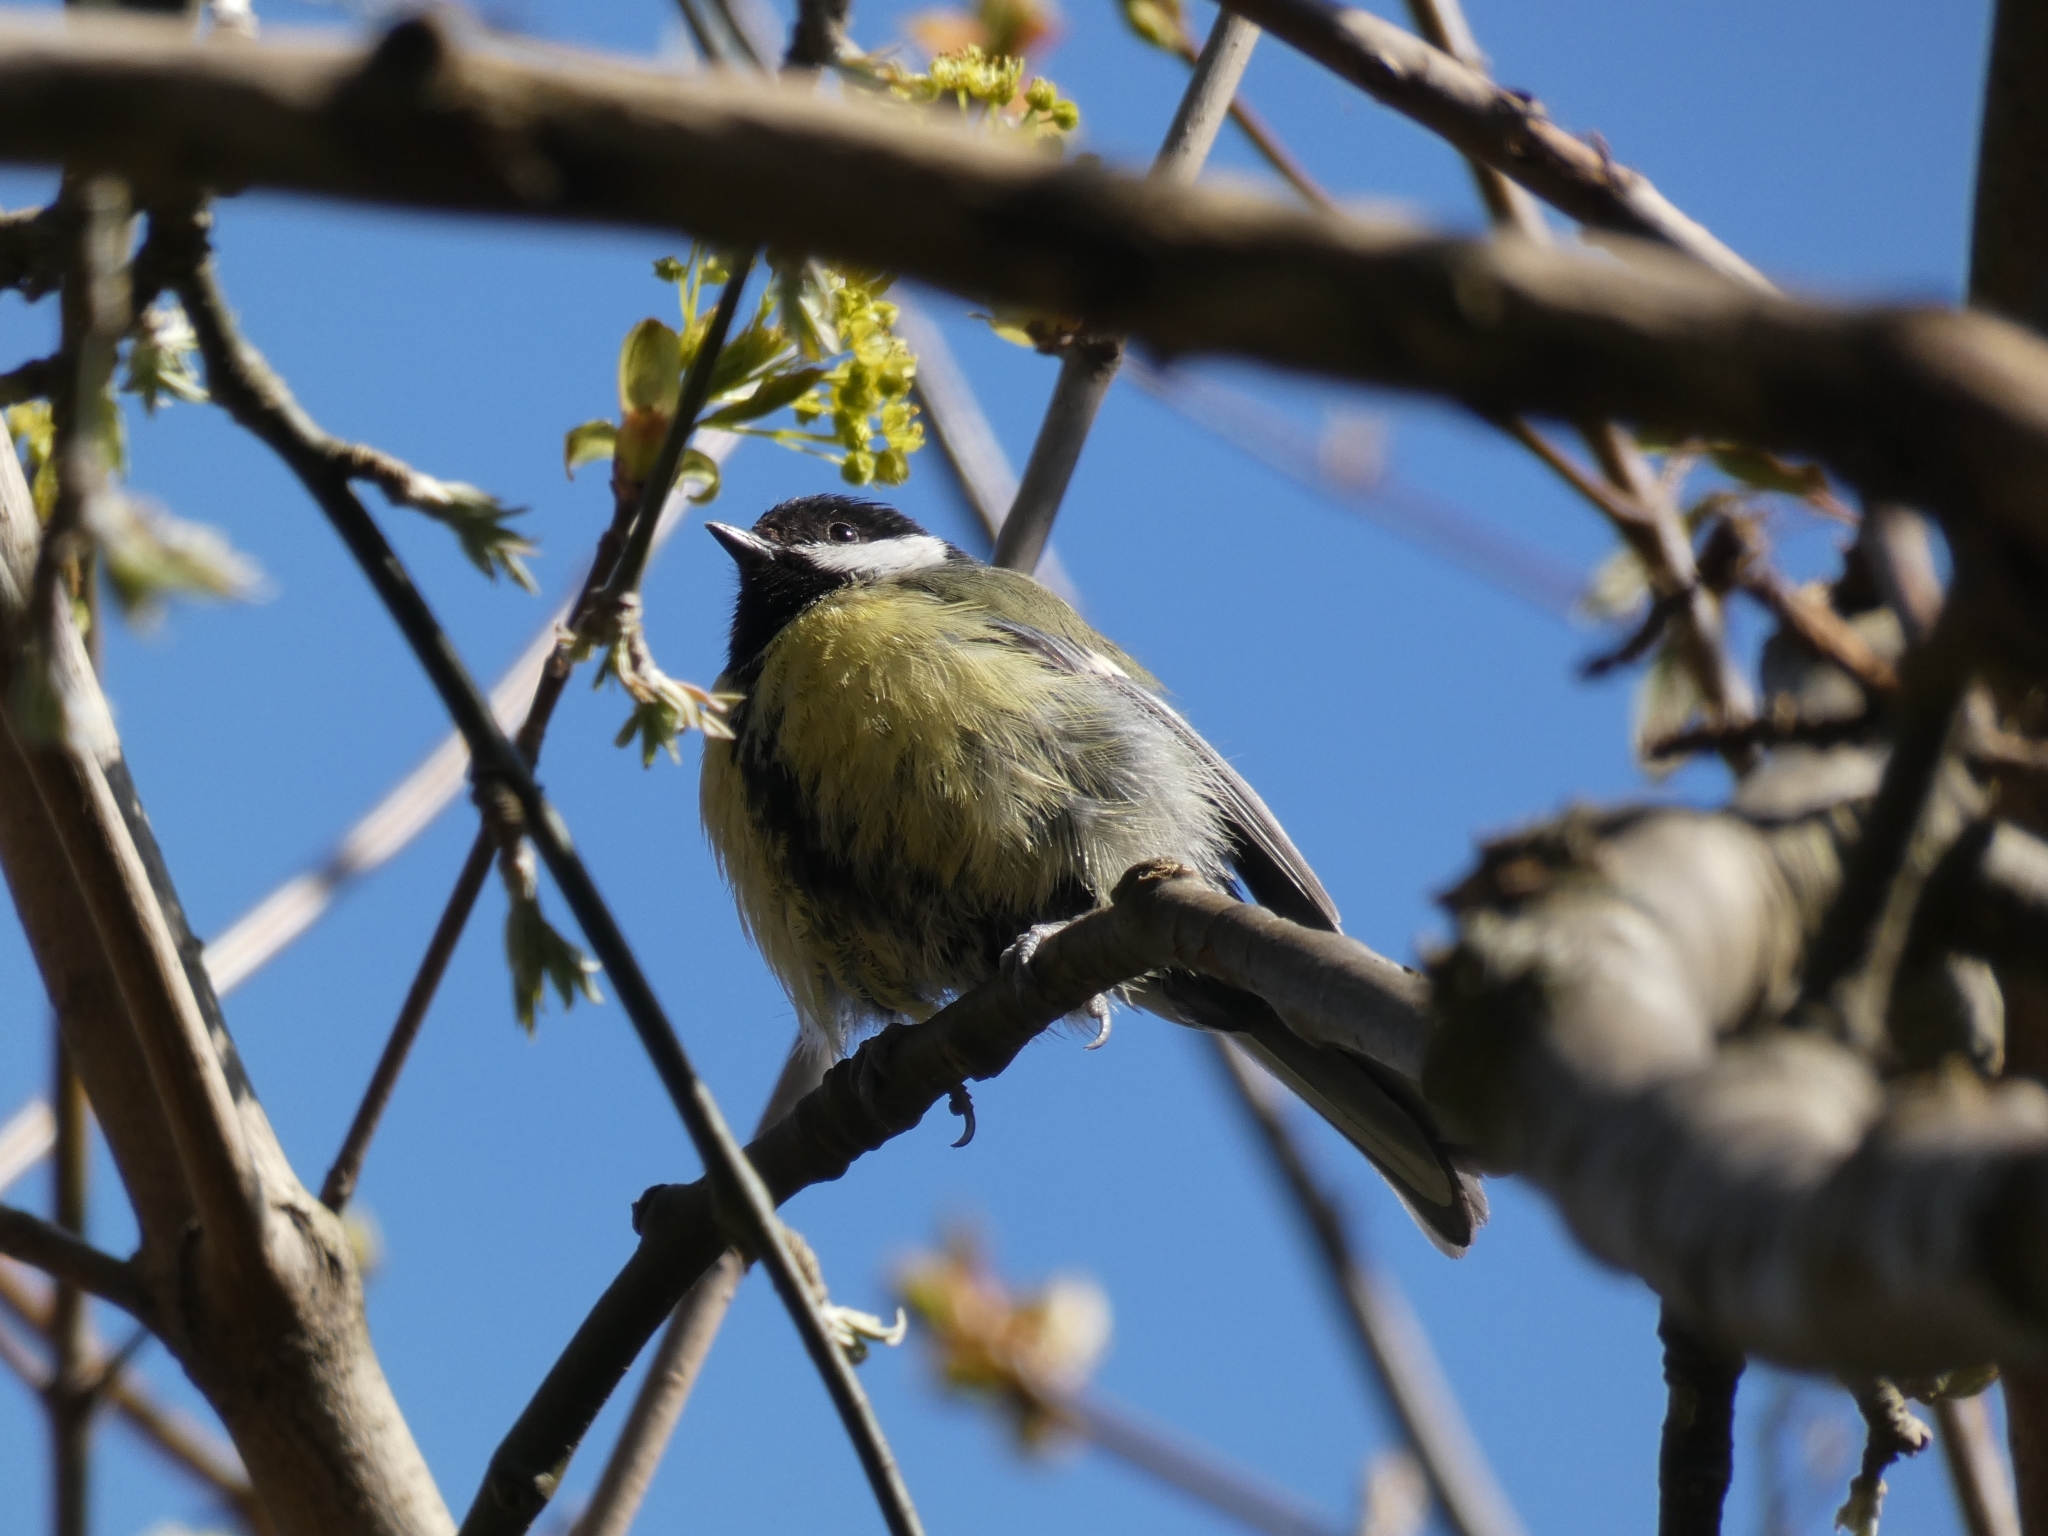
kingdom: Animalia
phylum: Chordata
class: Aves
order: Passeriformes
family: Paridae
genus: Parus
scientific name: Parus major
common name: Great tit
